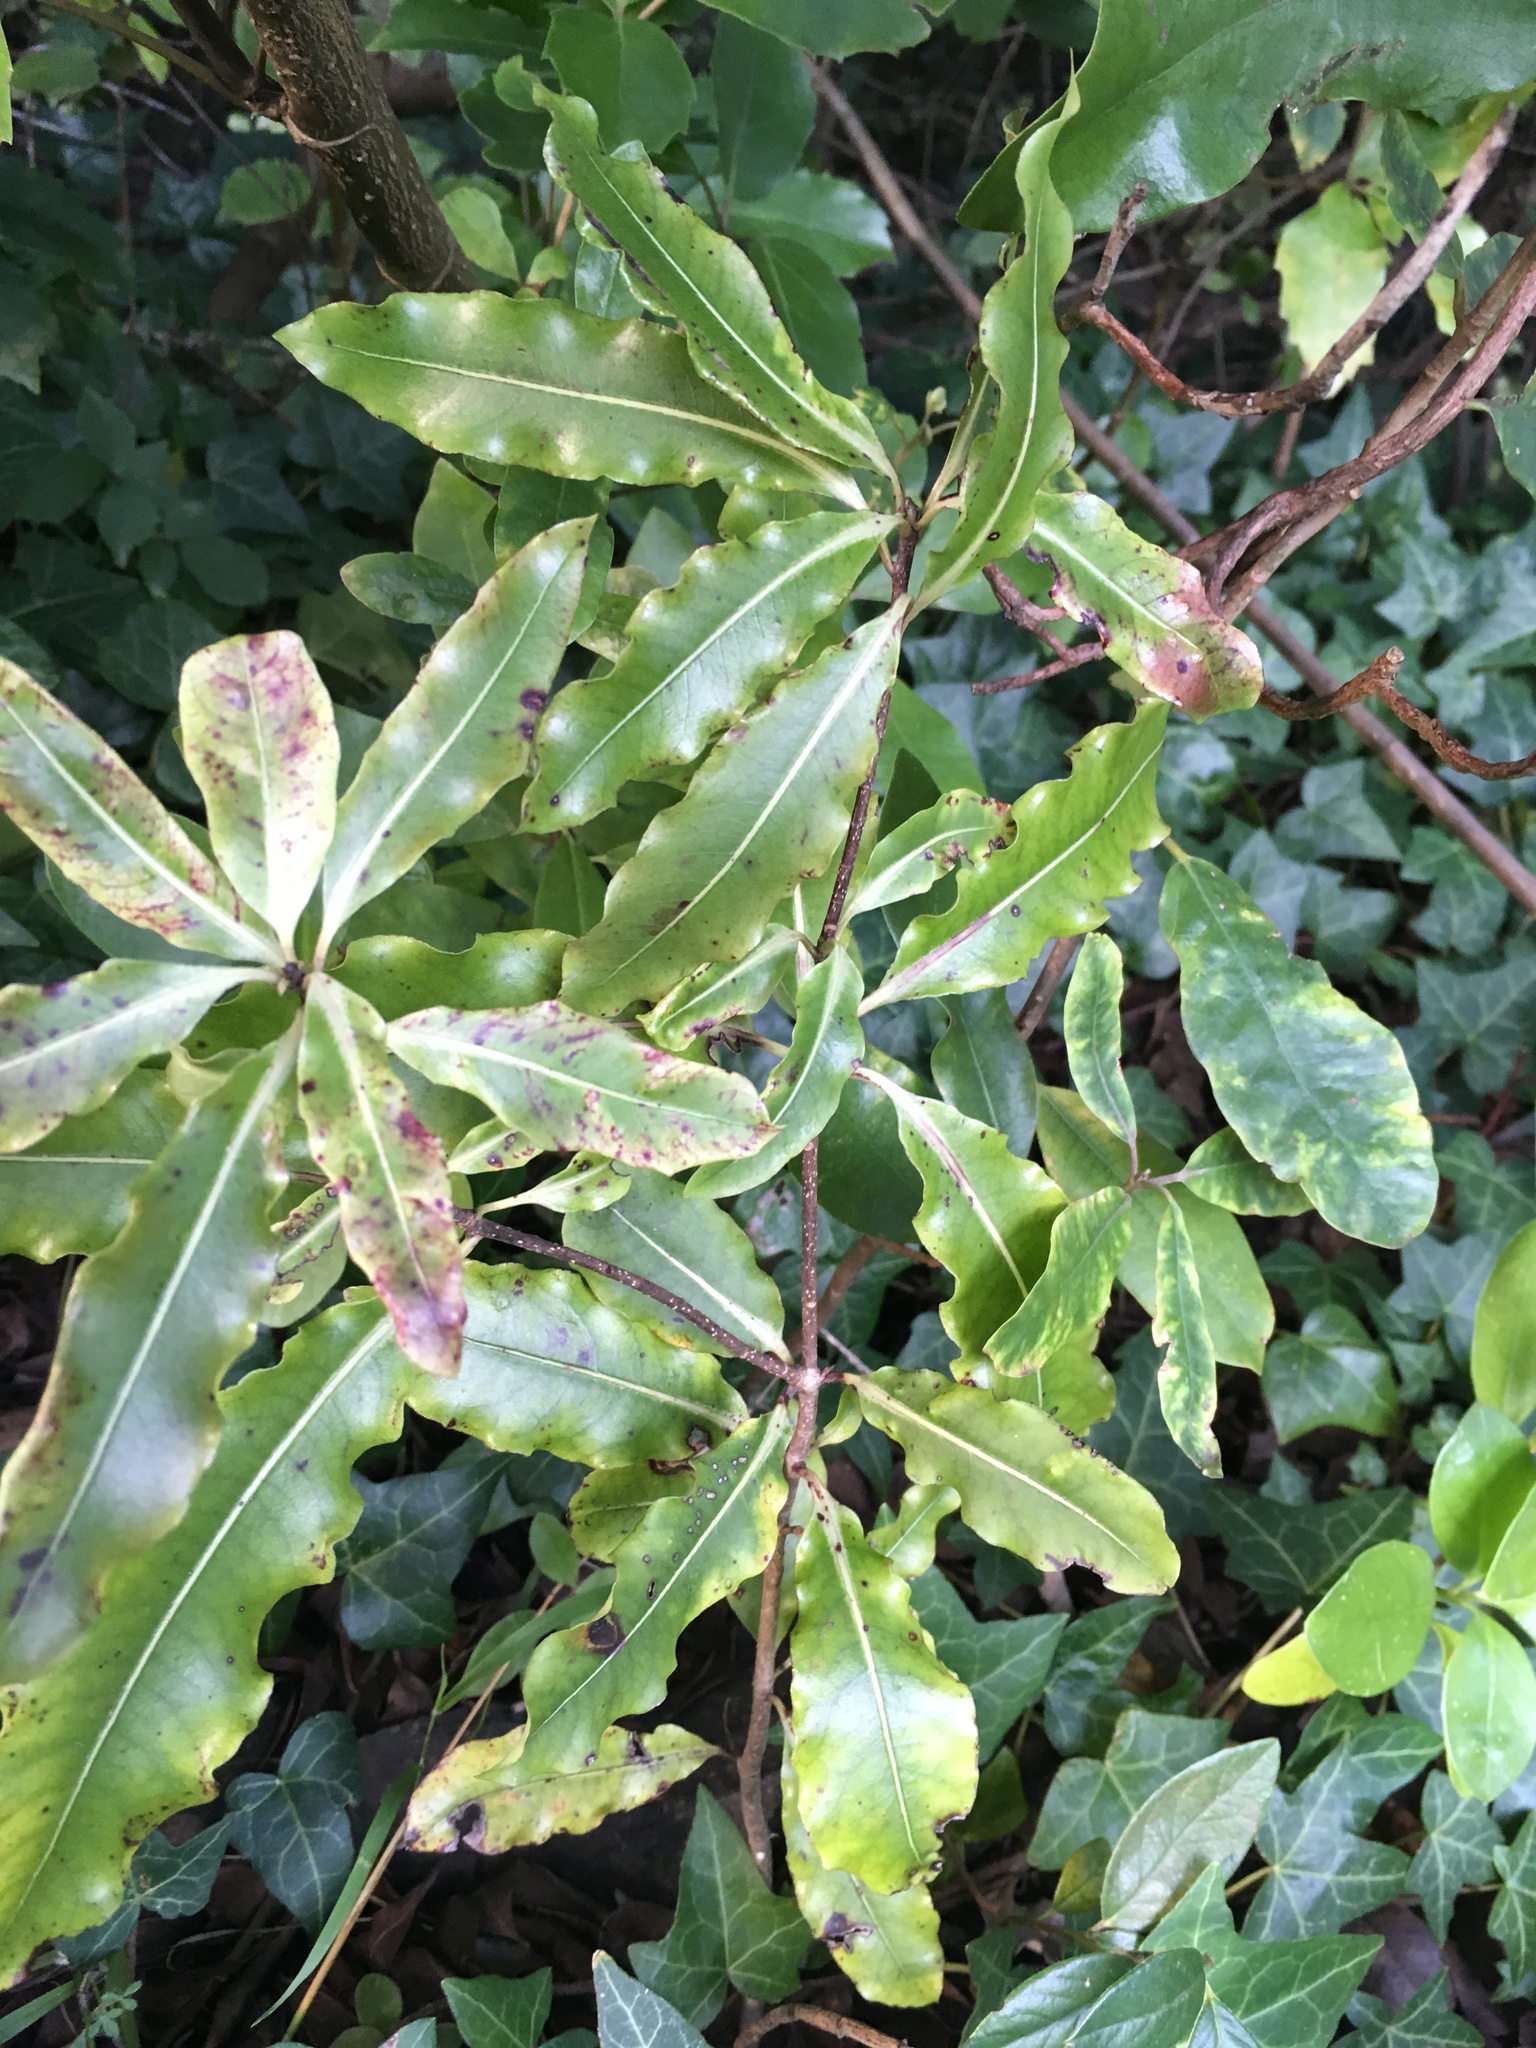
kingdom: Plantae
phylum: Tracheophyta
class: Magnoliopsida
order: Apiales
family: Pittosporaceae
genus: Pittosporum
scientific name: Pittosporum eugenioides
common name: Lemonwood
